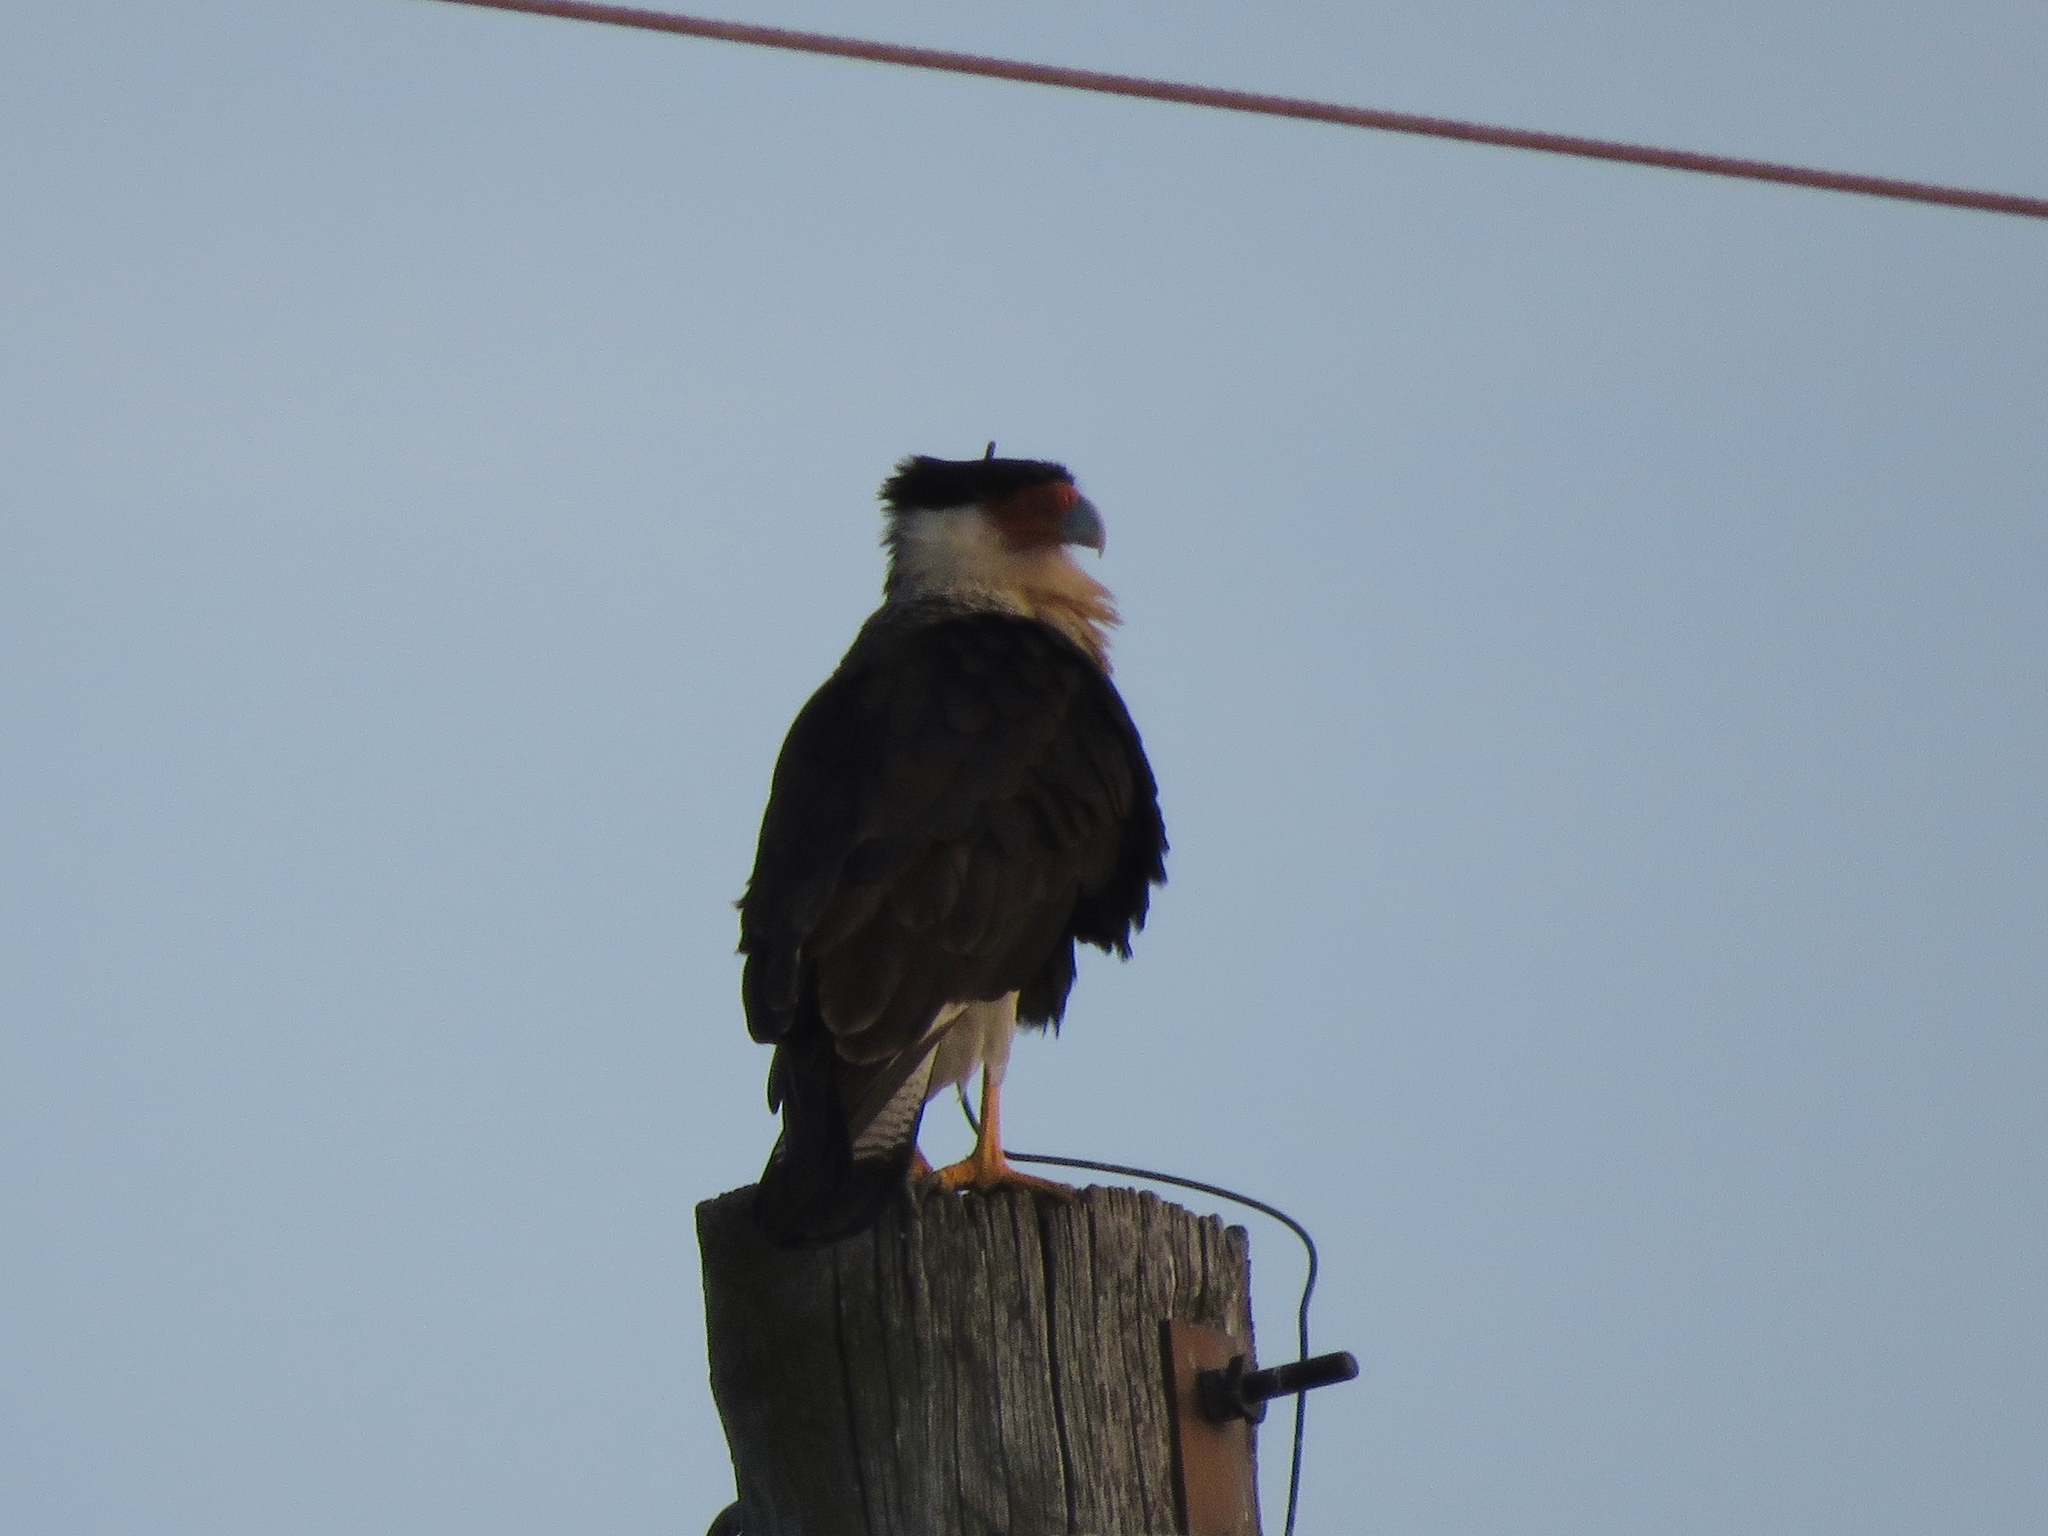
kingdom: Animalia
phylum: Chordata
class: Aves
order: Falconiformes
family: Falconidae
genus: Caracara
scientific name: Caracara plancus
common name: Southern caracara
